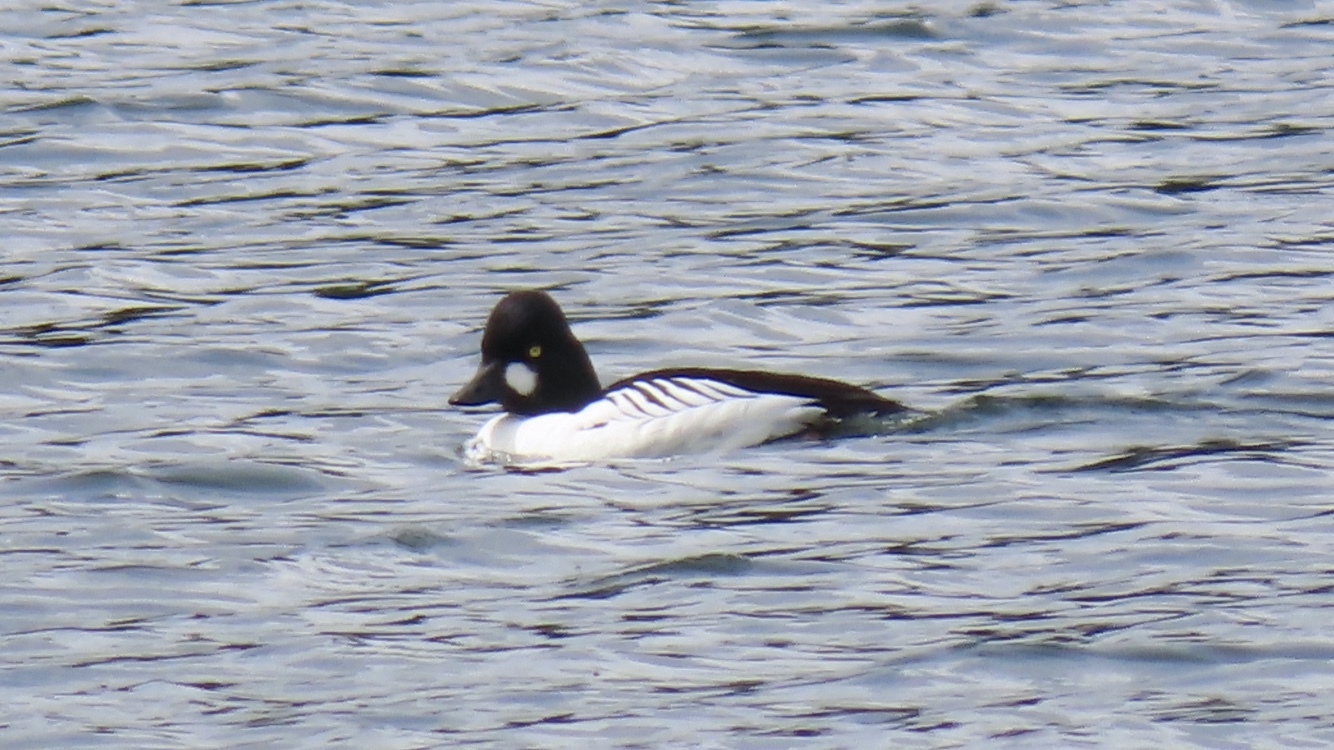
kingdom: Animalia
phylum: Chordata
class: Aves
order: Anseriformes
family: Anatidae
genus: Bucephala
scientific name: Bucephala clangula
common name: Common goldeneye
